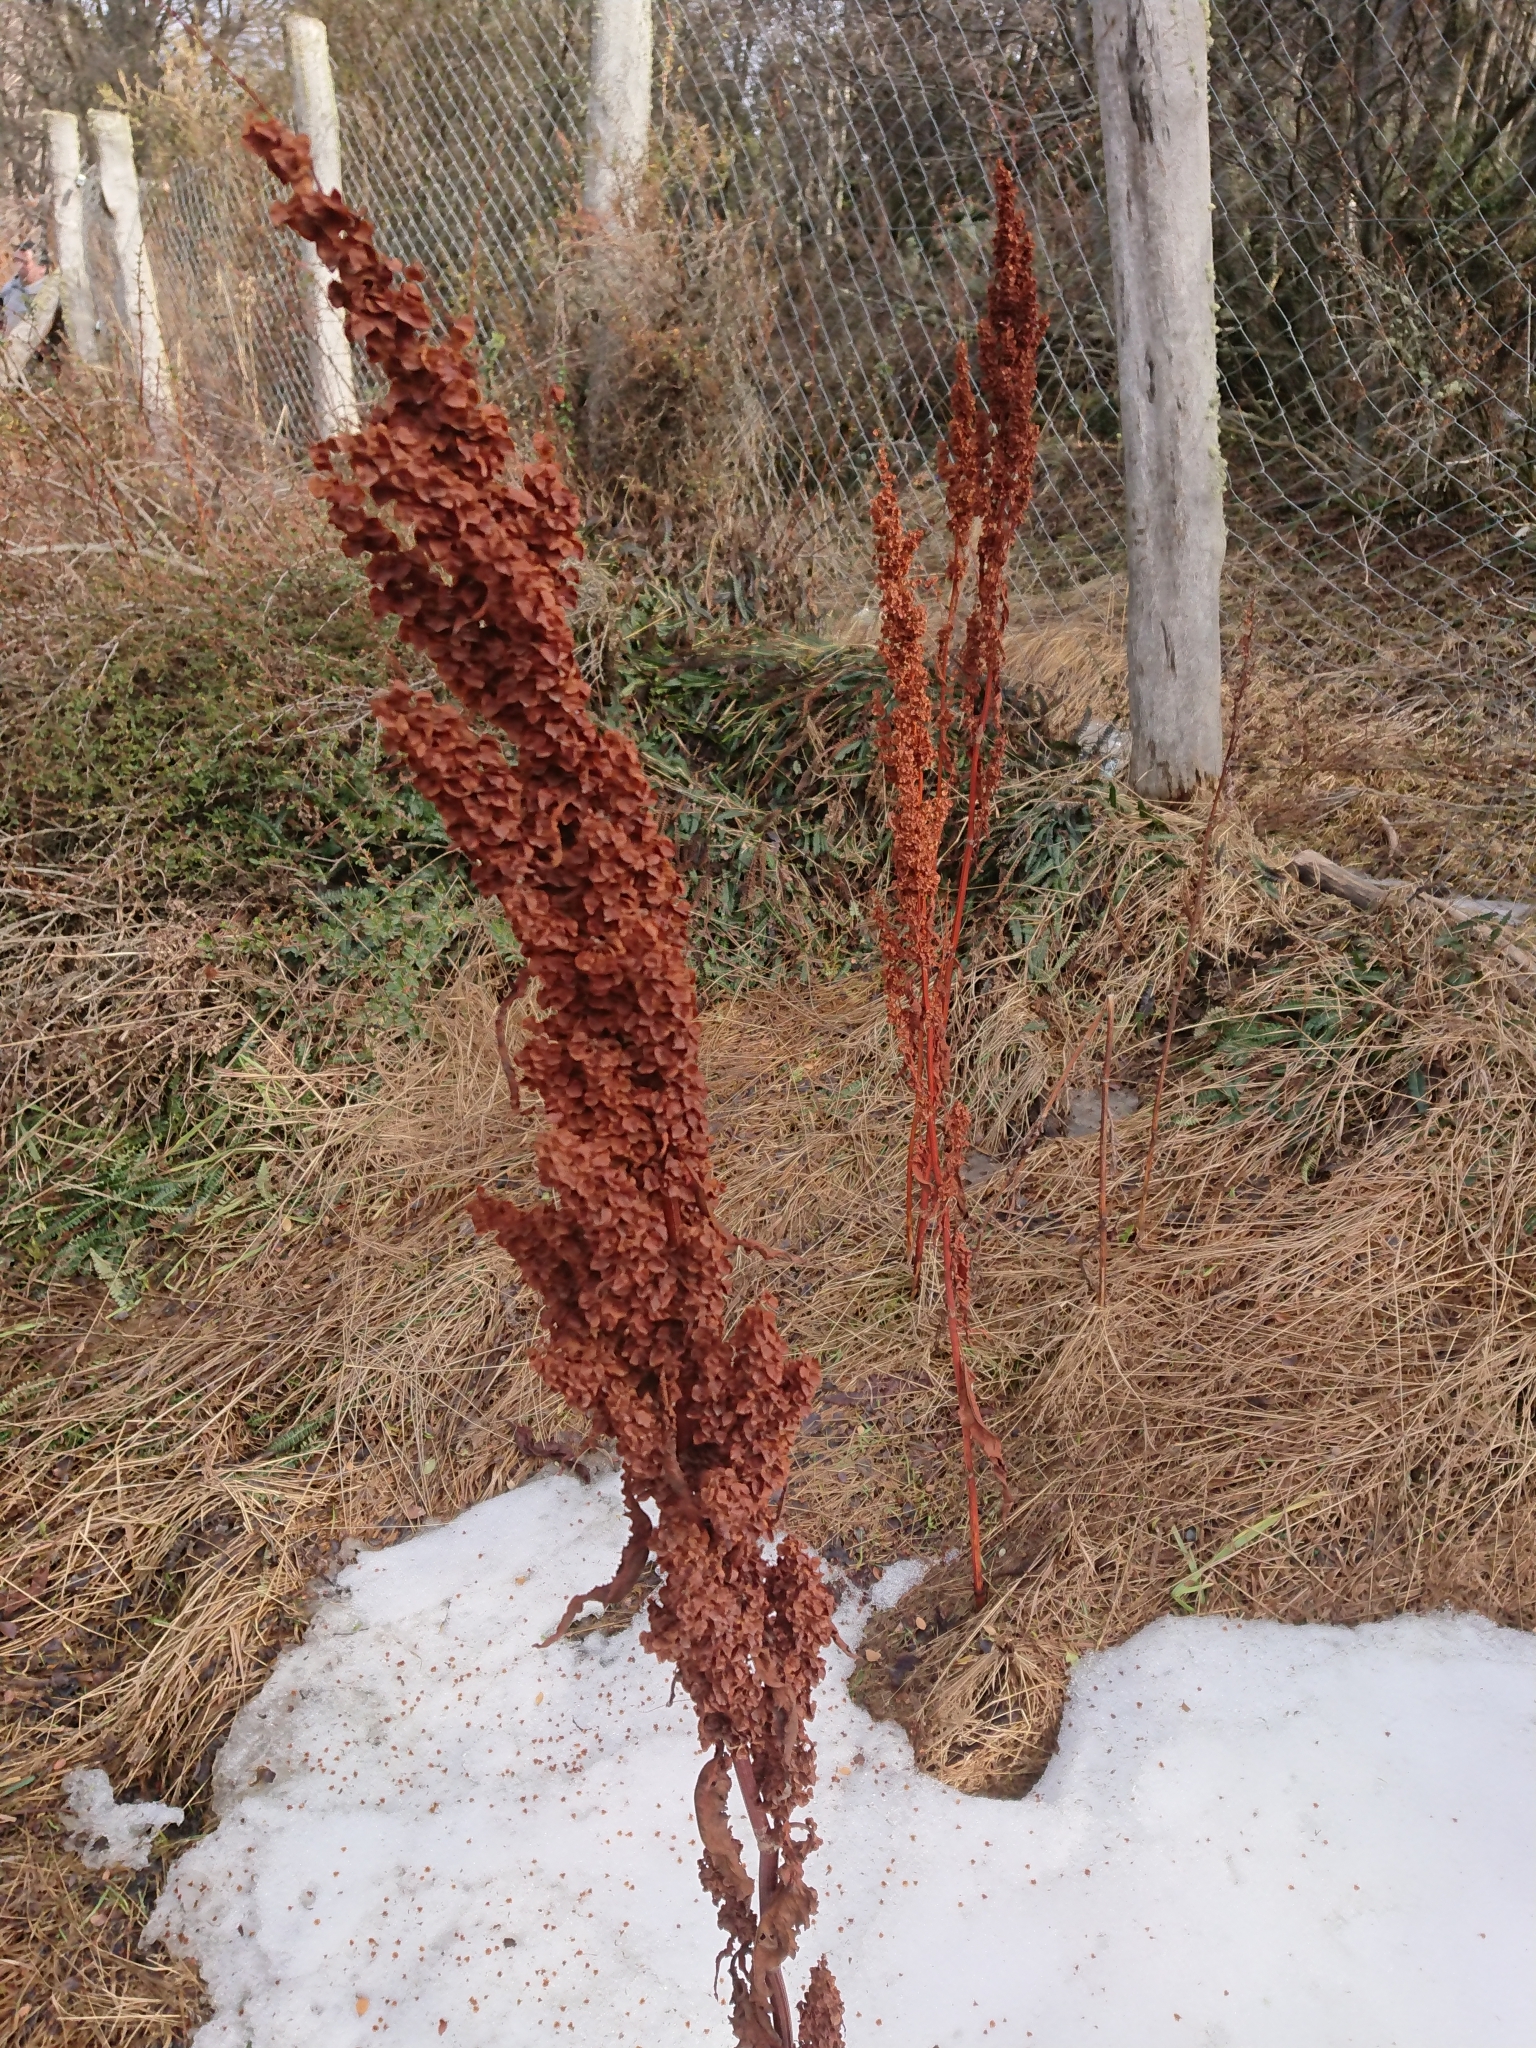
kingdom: Plantae
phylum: Tracheophyta
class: Magnoliopsida
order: Caryophyllales
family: Polygonaceae
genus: Rumex
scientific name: Rumex crispus
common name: Curled dock
